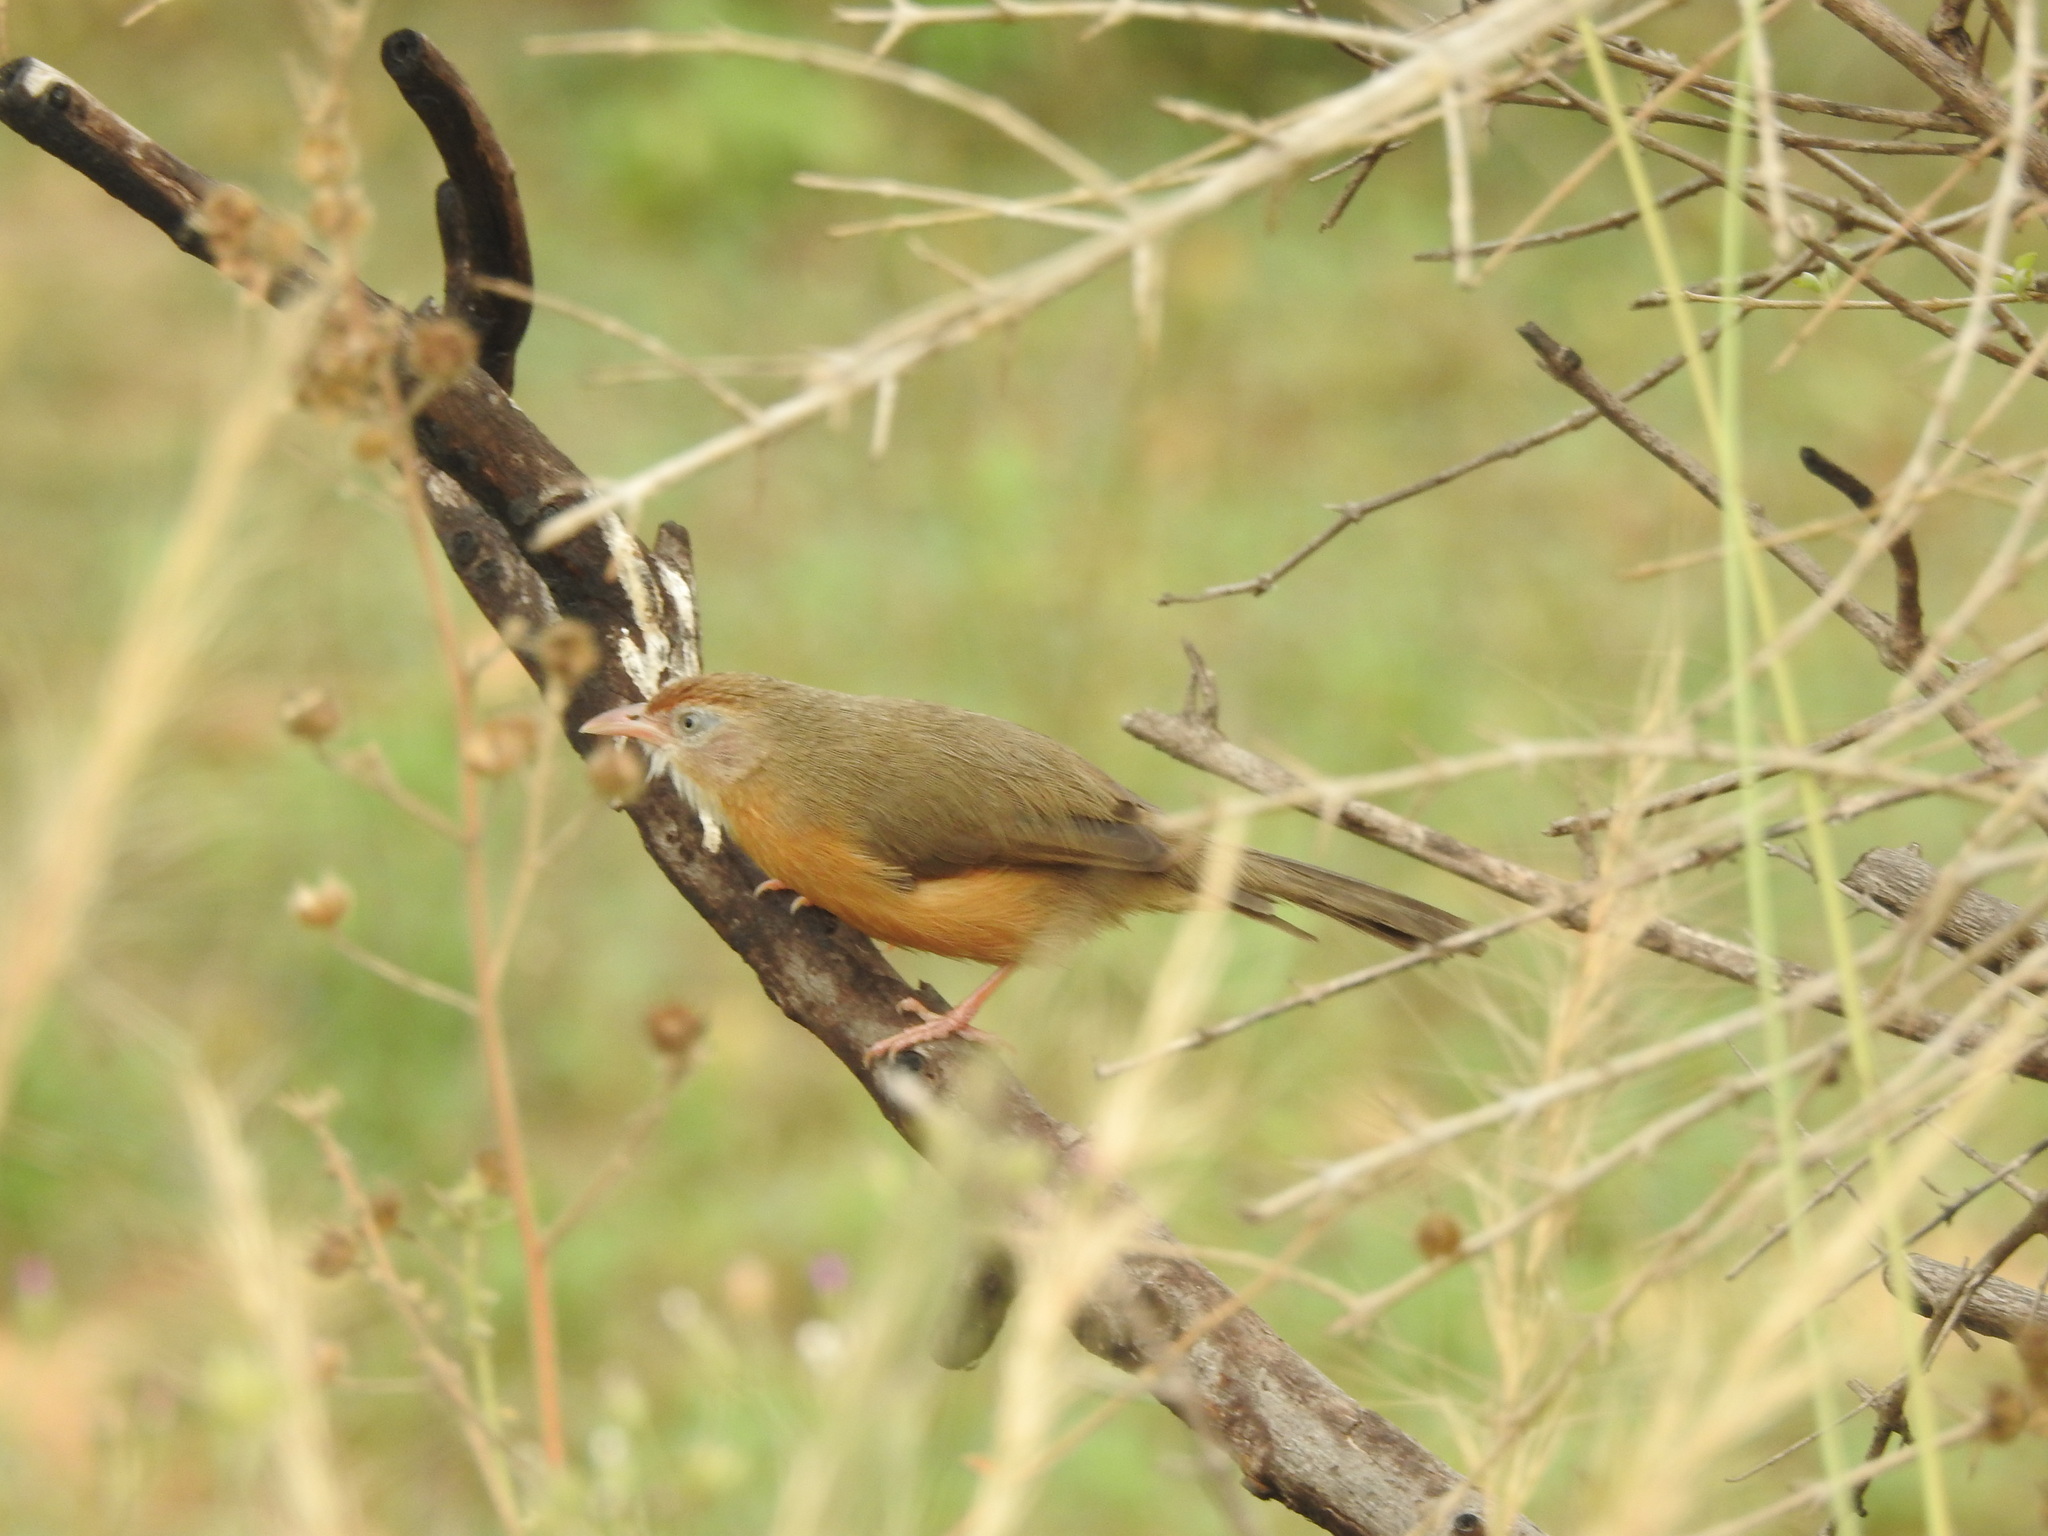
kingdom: Animalia
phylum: Chordata
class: Aves
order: Passeriformes
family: Timaliidae
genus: Dumetia
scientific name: Dumetia hyperythra
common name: Tawny-bellied babbler
